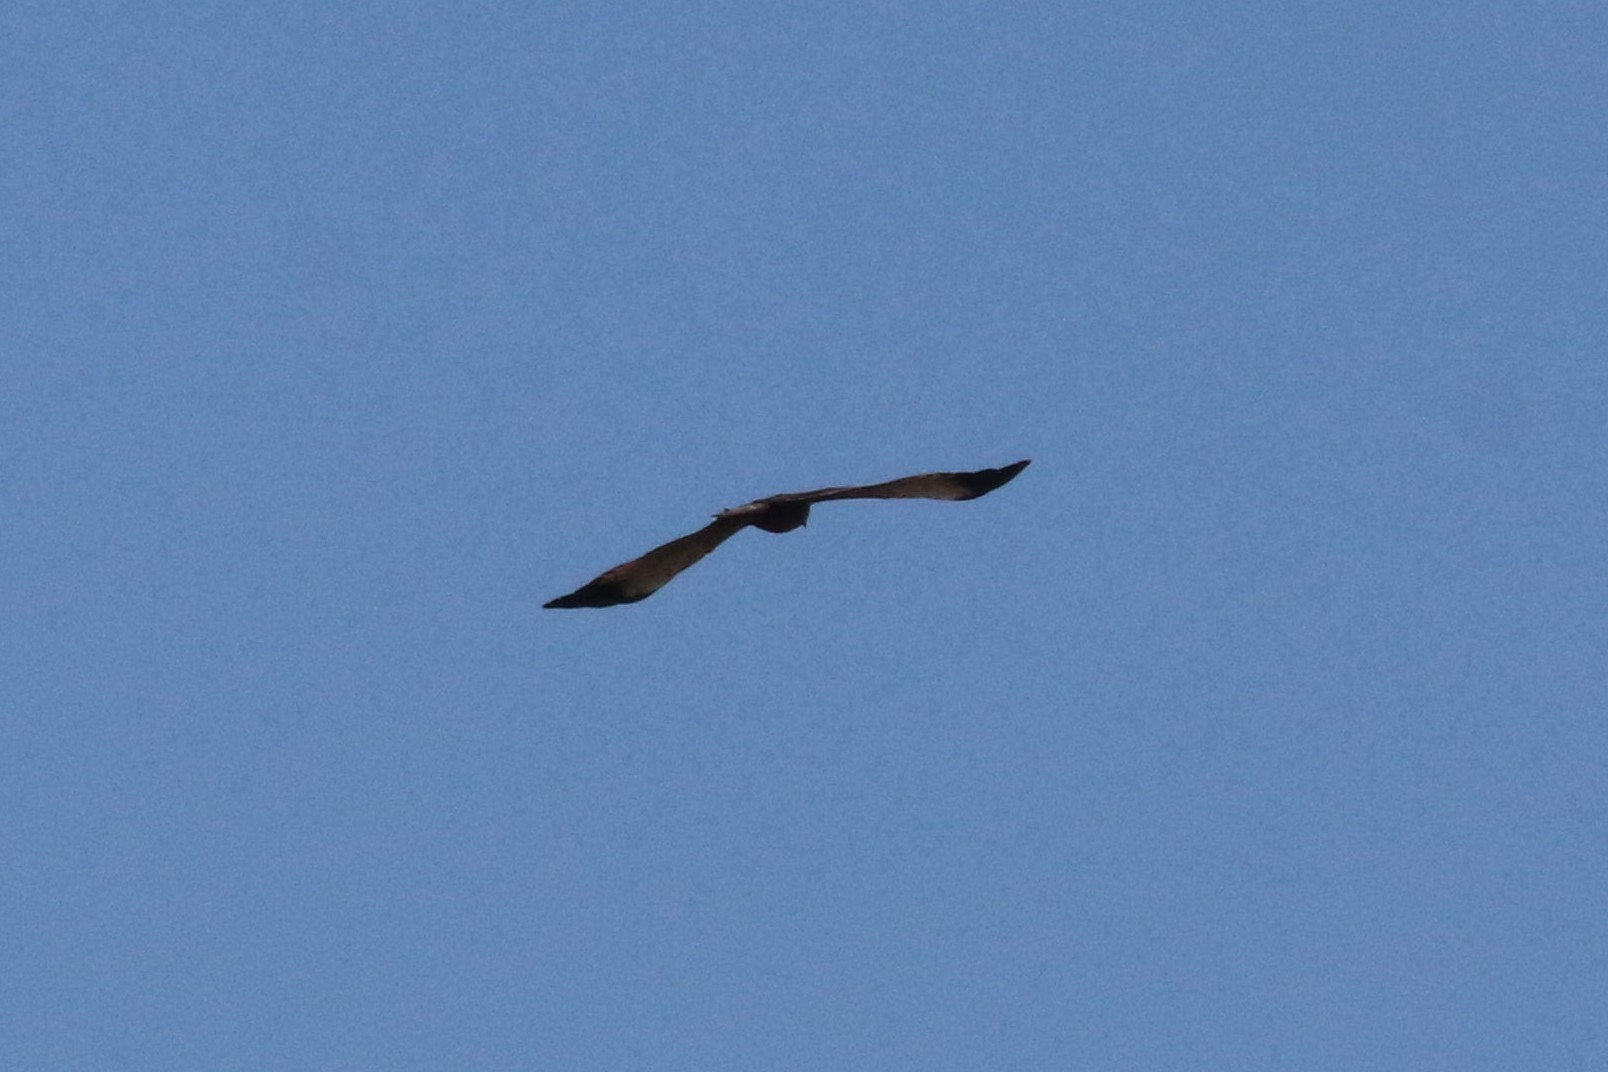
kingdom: Animalia
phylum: Chordata
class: Aves
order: Accipitriformes
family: Accipitridae
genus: Circus
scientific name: Circus aeruginosus
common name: Western marsh harrier
